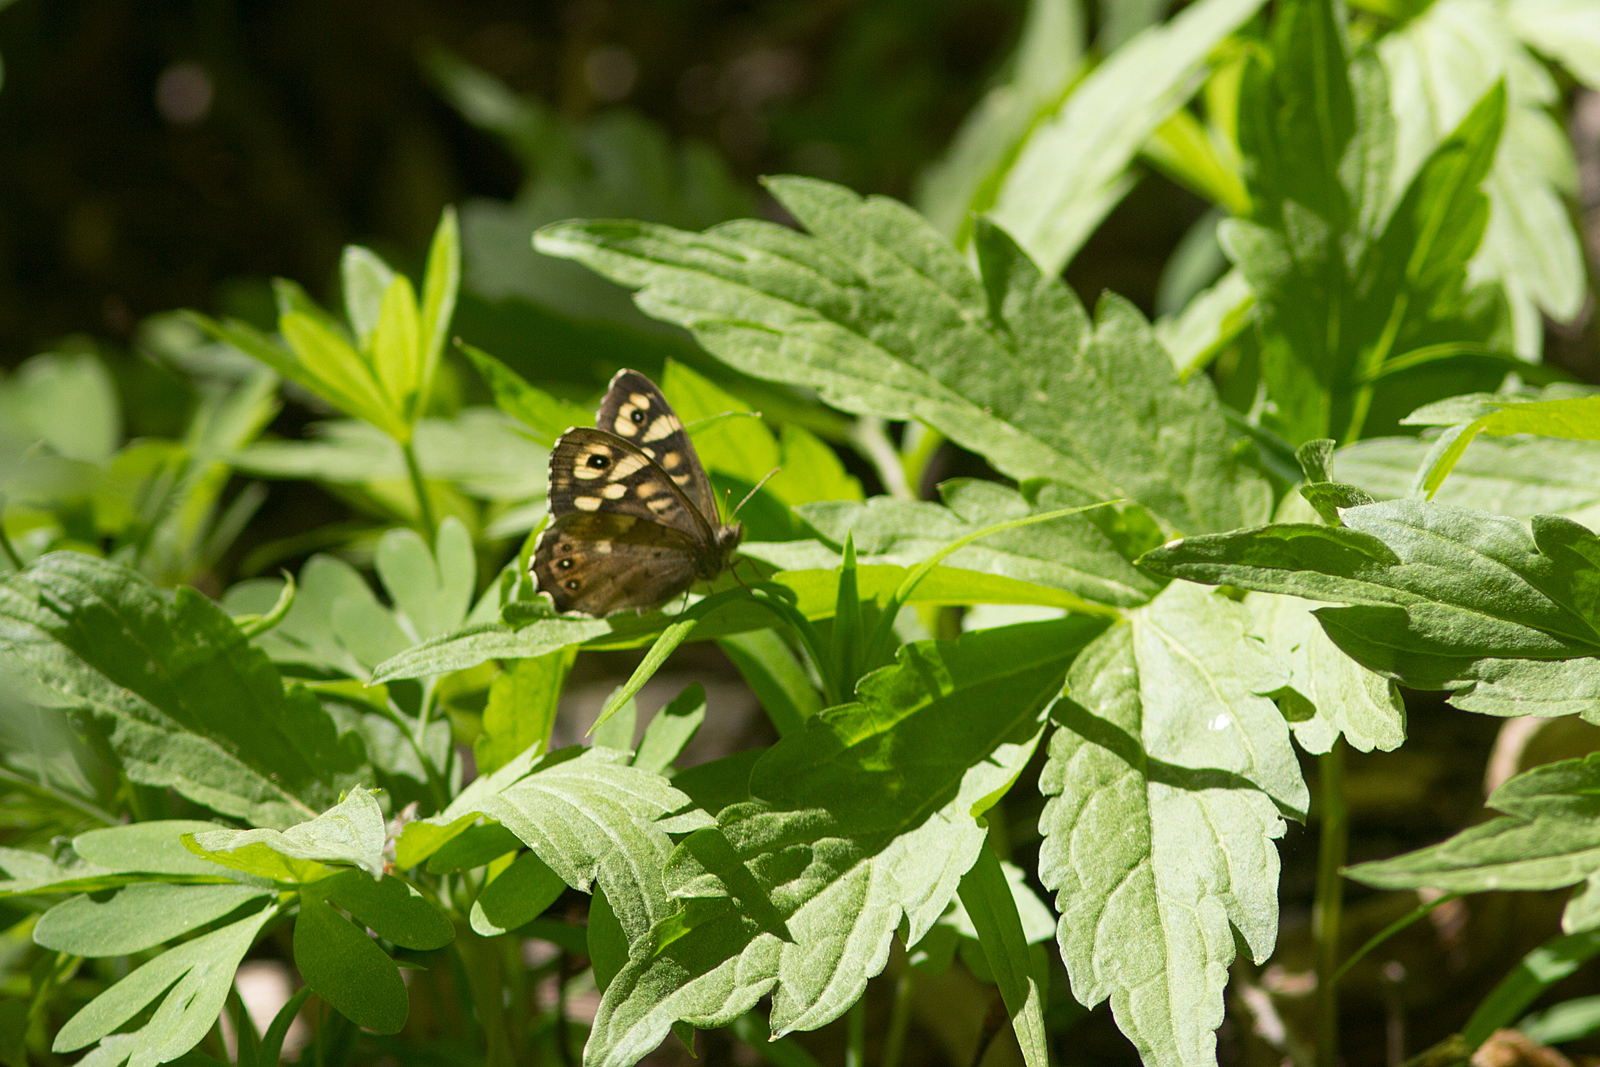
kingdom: Animalia
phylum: Arthropoda
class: Insecta
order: Lepidoptera
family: Nymphalidae
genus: Pararge
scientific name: Pararge aegeria
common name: Speckled wood
